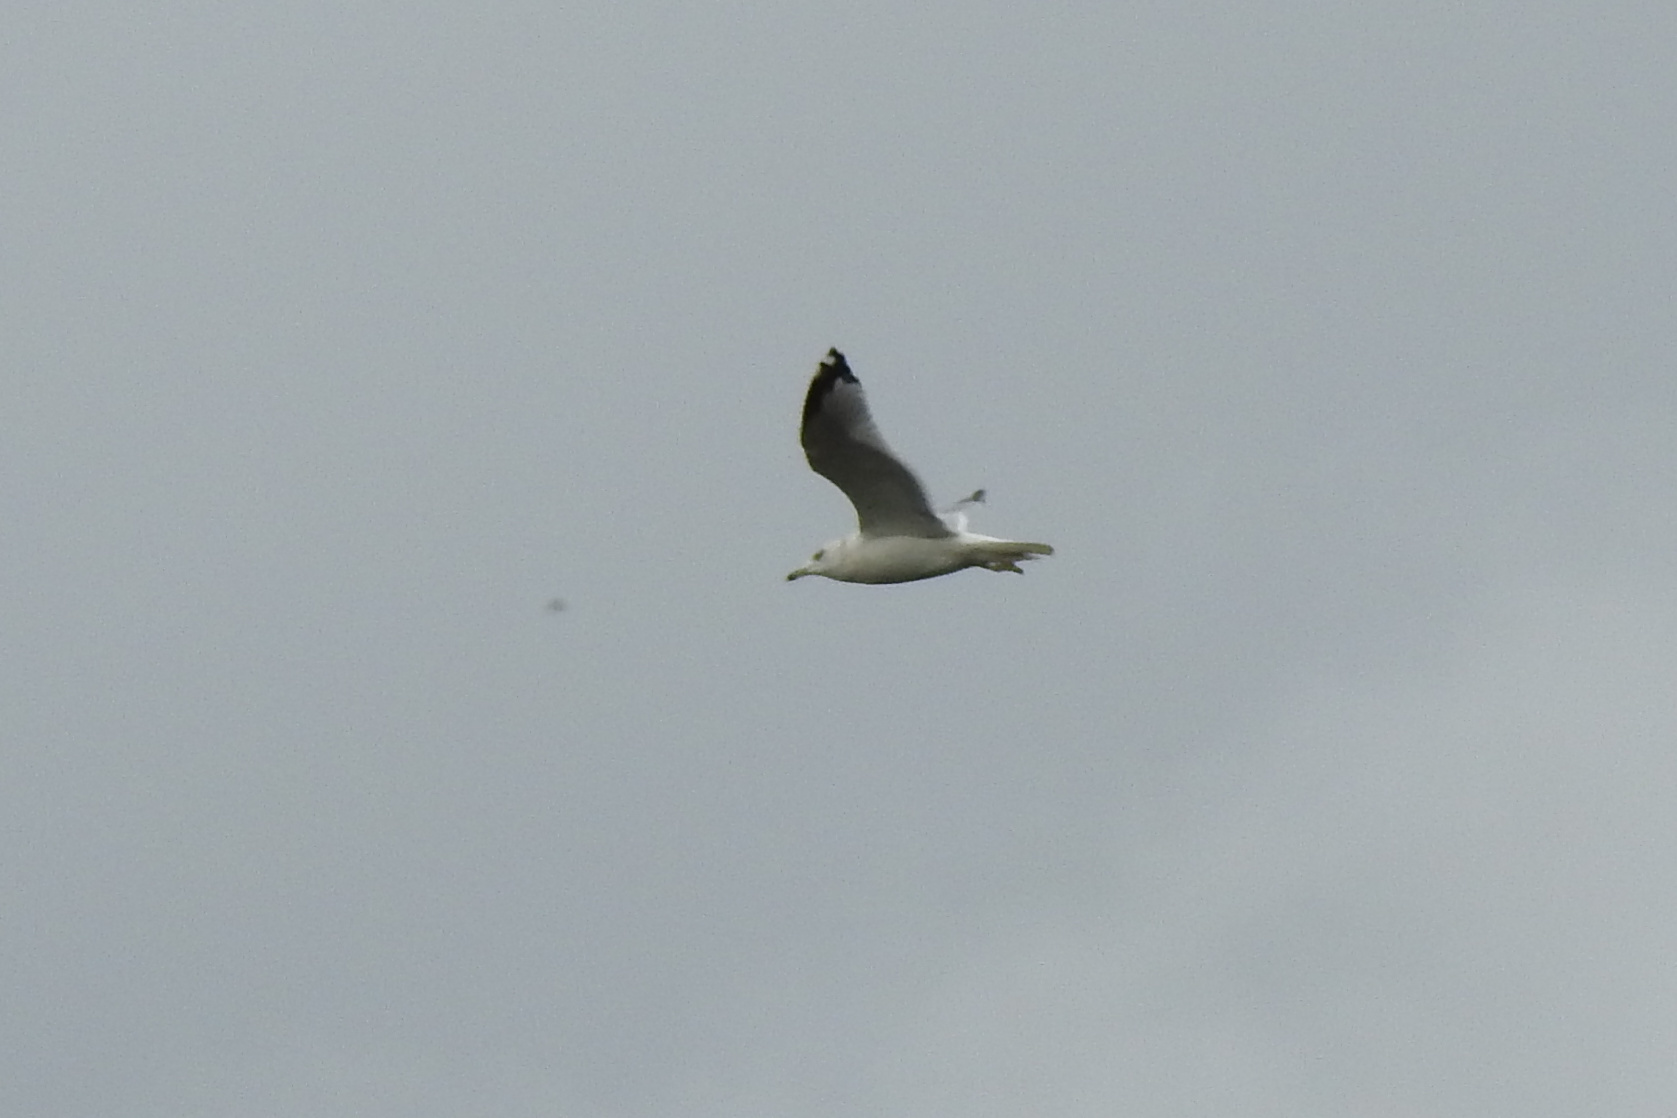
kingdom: Animalia
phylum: Chordata
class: Aves
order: Charadriiformes
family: Laridae
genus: Larus
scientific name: Larus delawarensis
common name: Ring-billed gull
